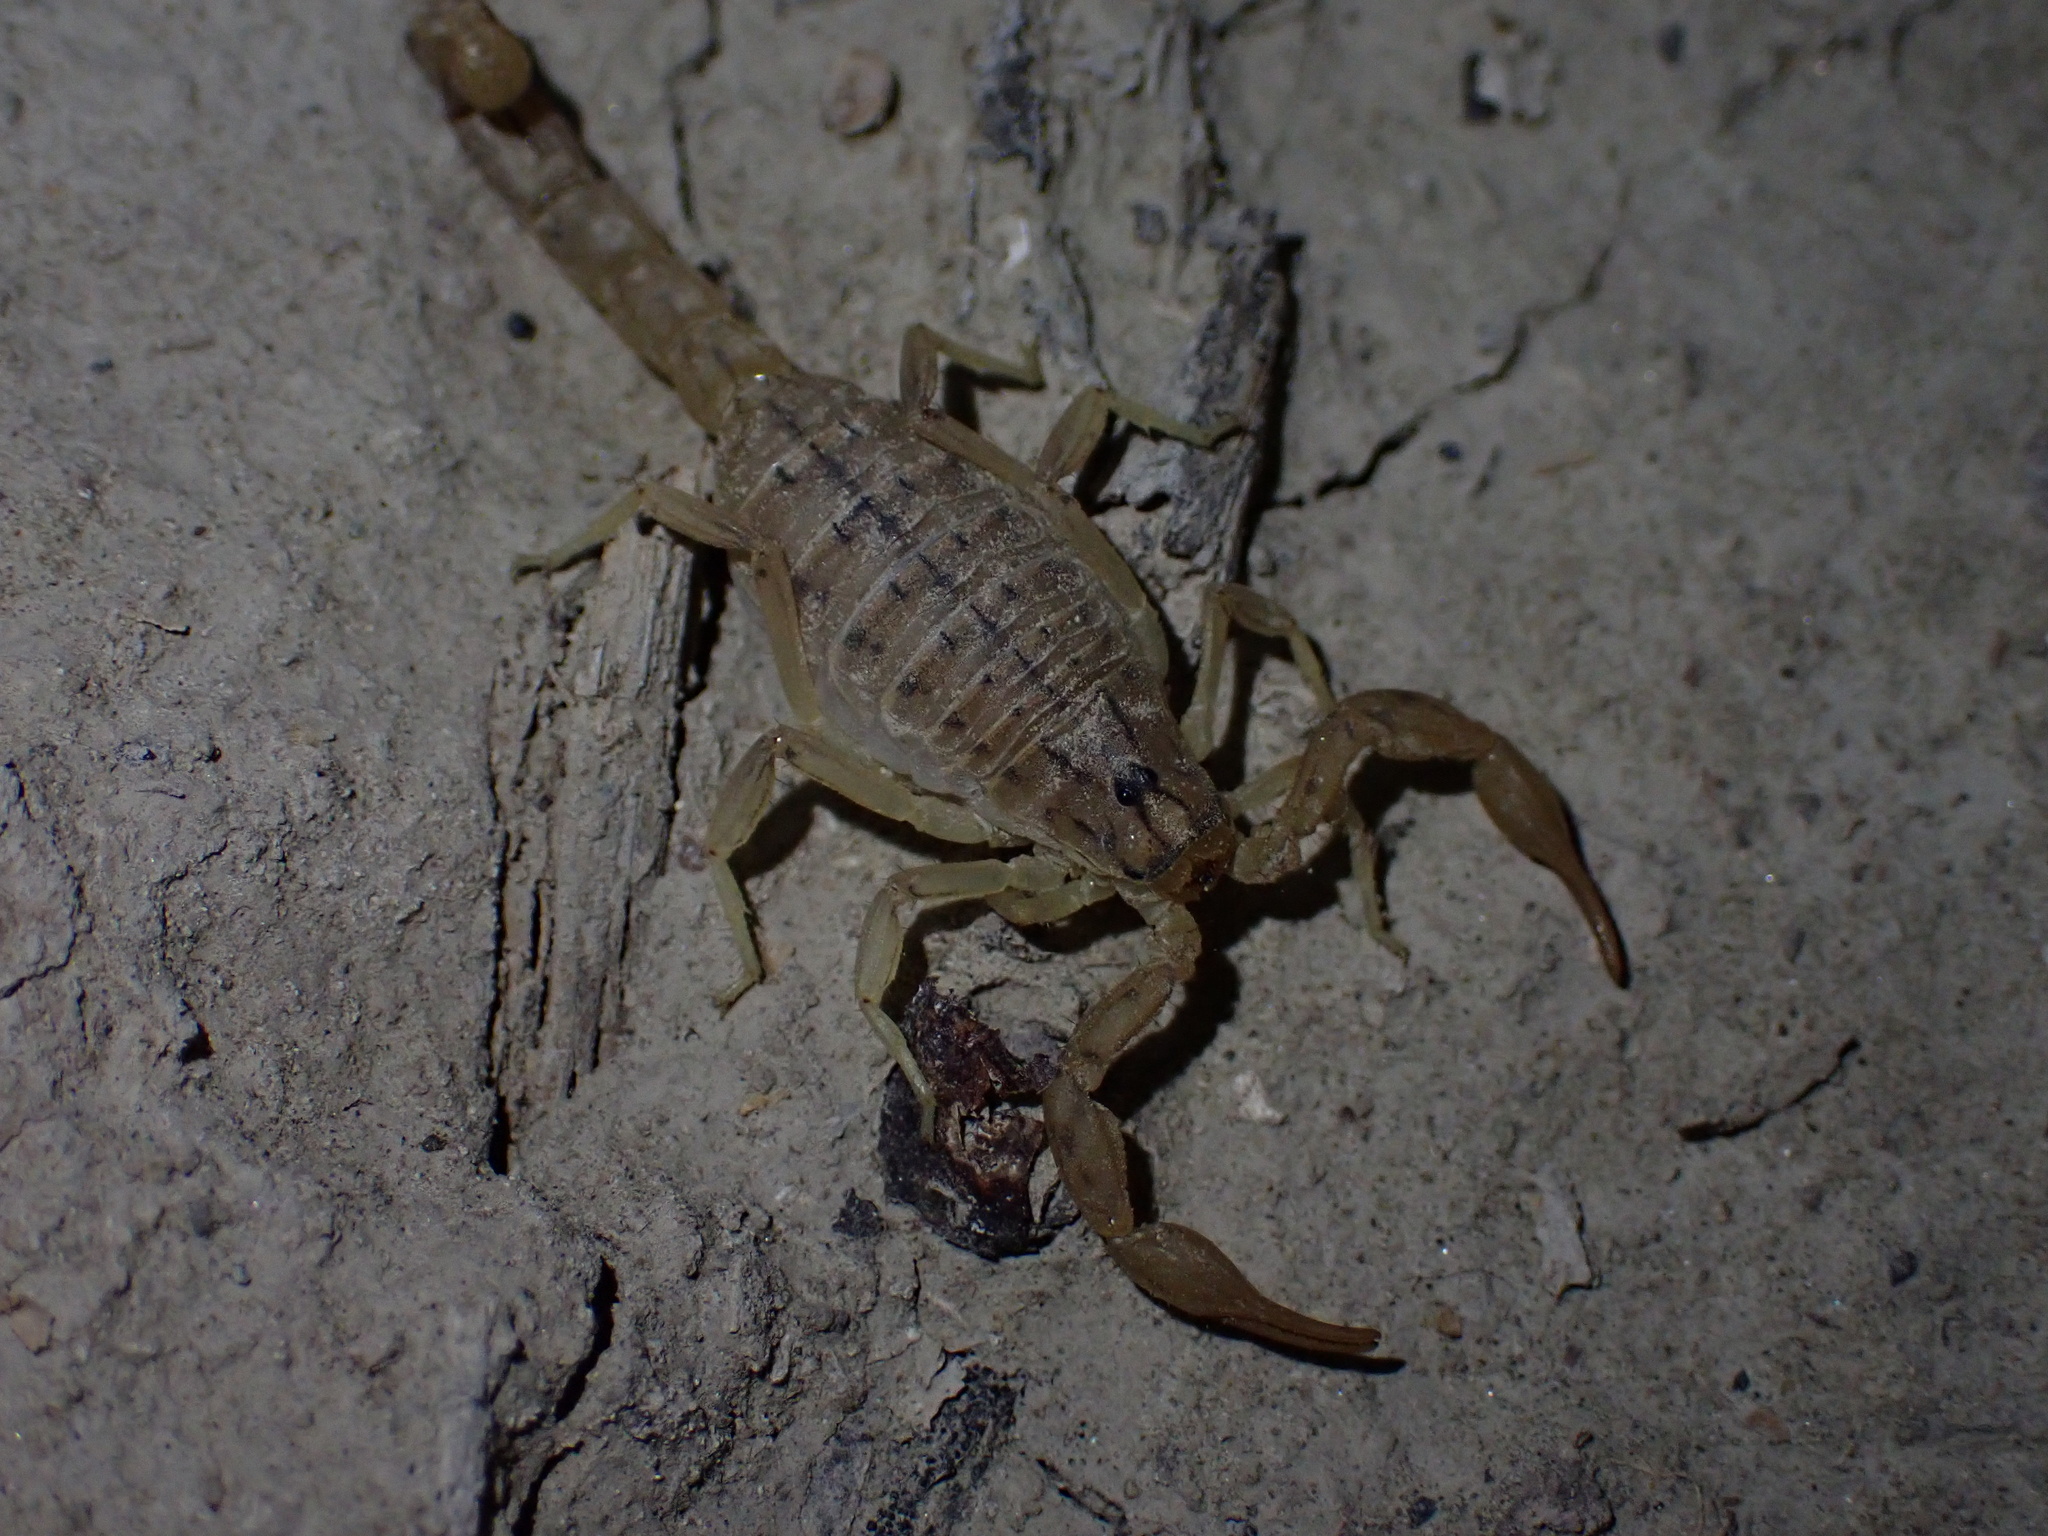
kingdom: Animalia
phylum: Arthropoda
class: Arachnida
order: Scorpiones
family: Buthidae
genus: Mesobuthus
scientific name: Mesobuthus mirshamsii
